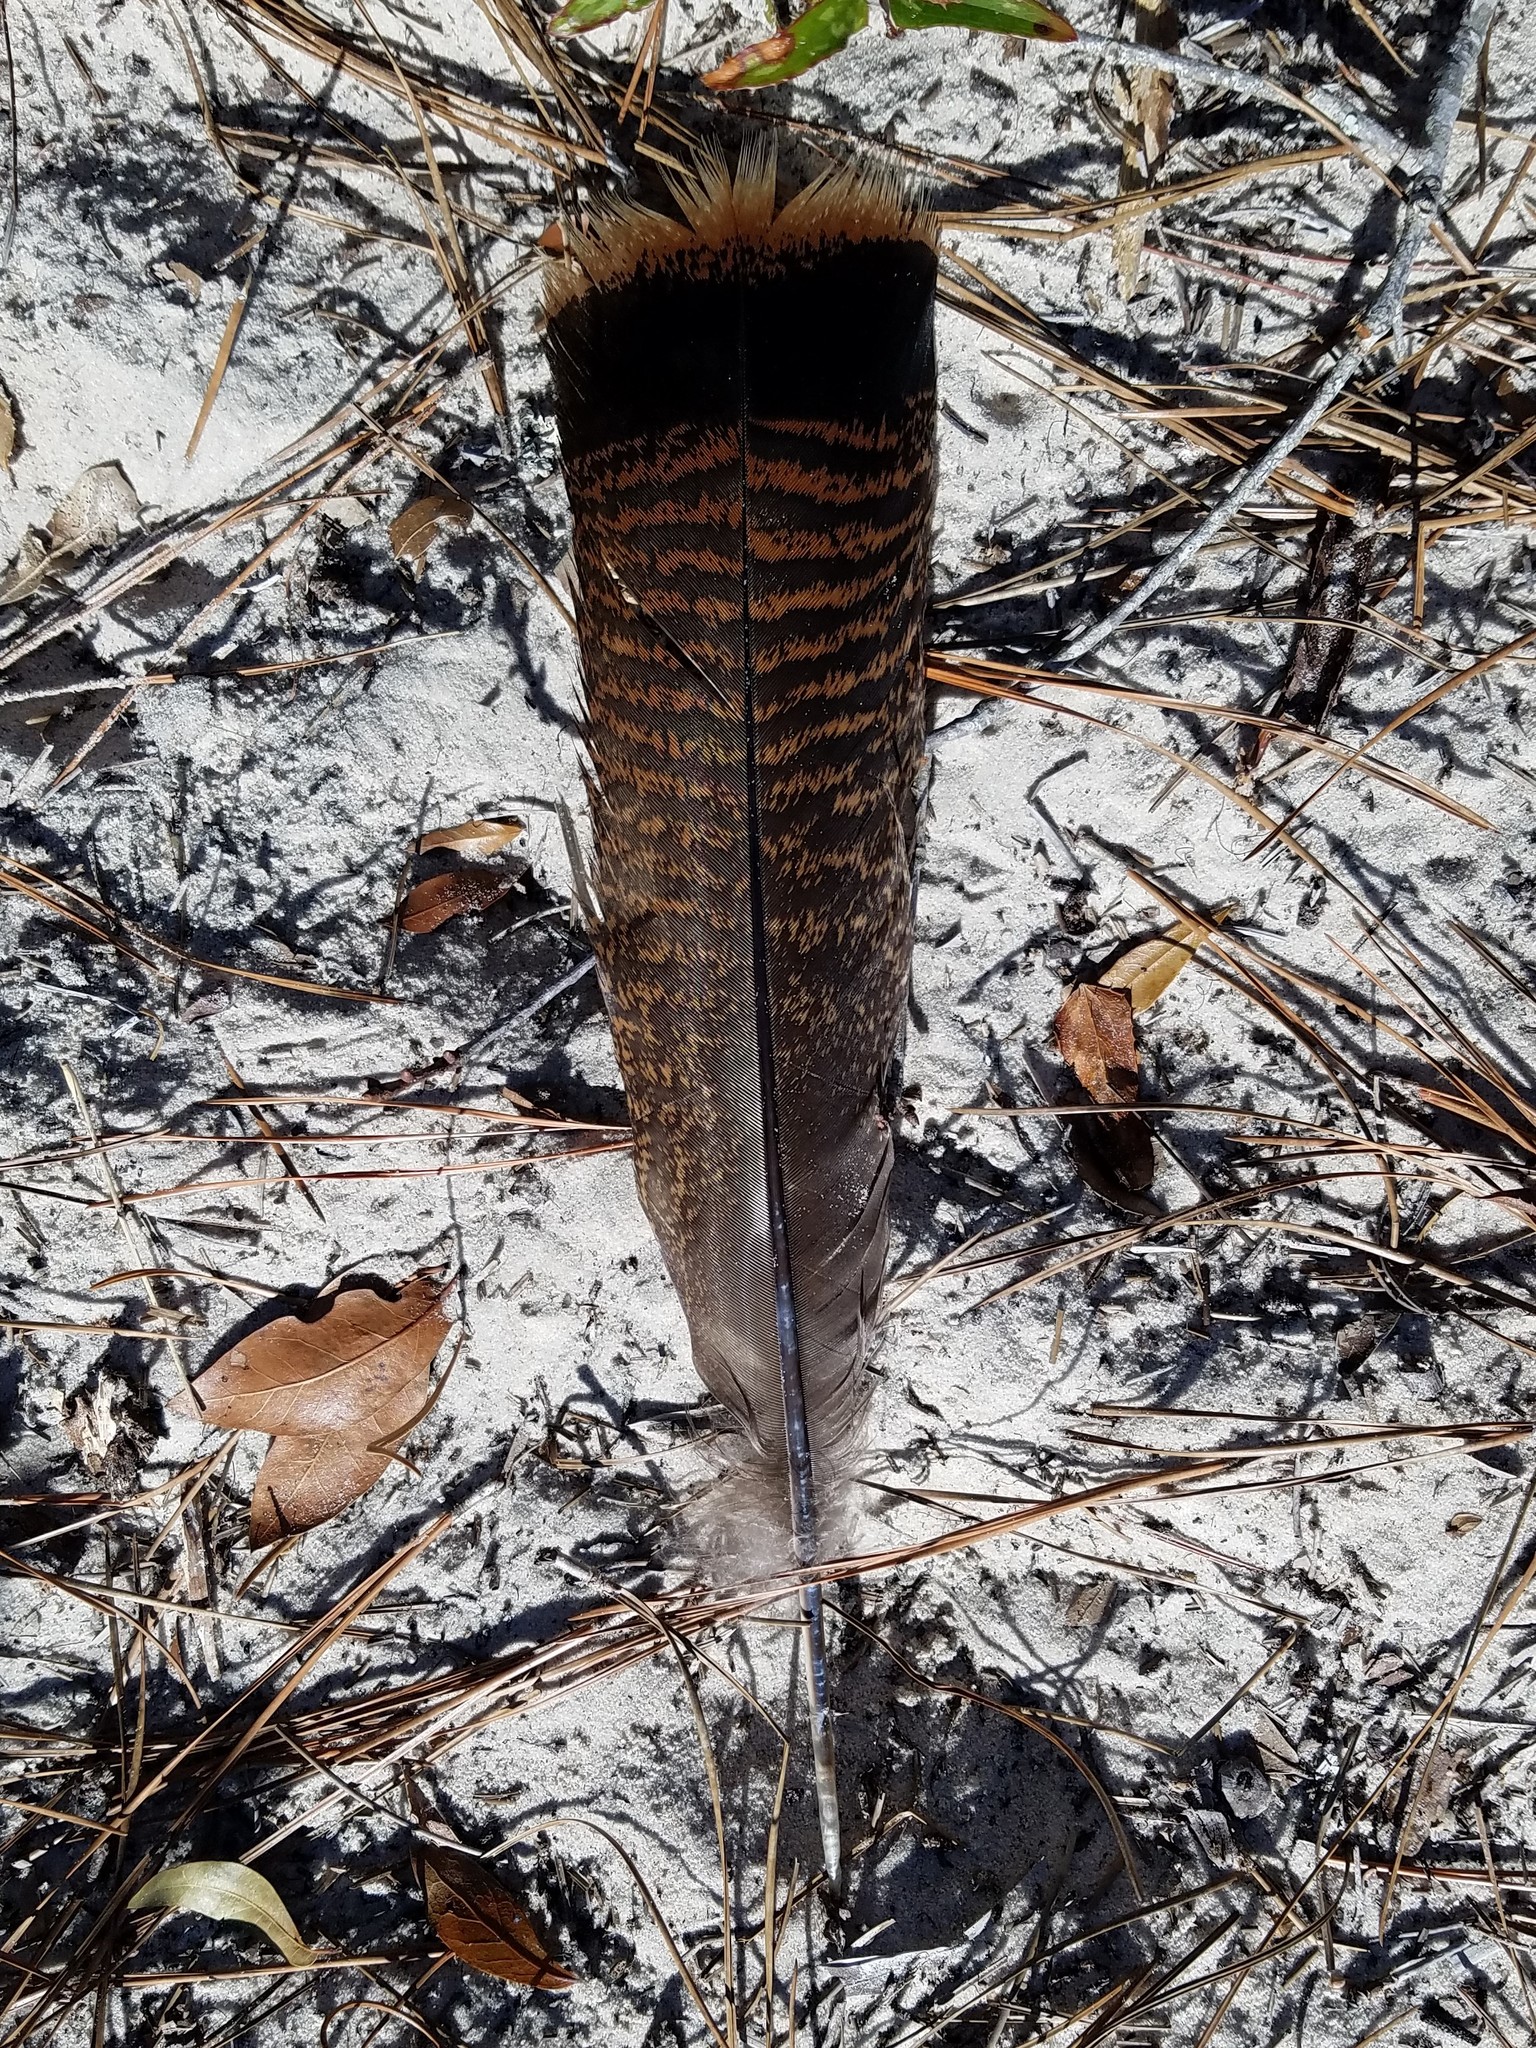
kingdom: Animalia
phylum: Chordata
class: Aves
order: Galliformes
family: Phasianidae
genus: Meleagris
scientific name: Meleagris gallopavo
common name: Wild turkey
